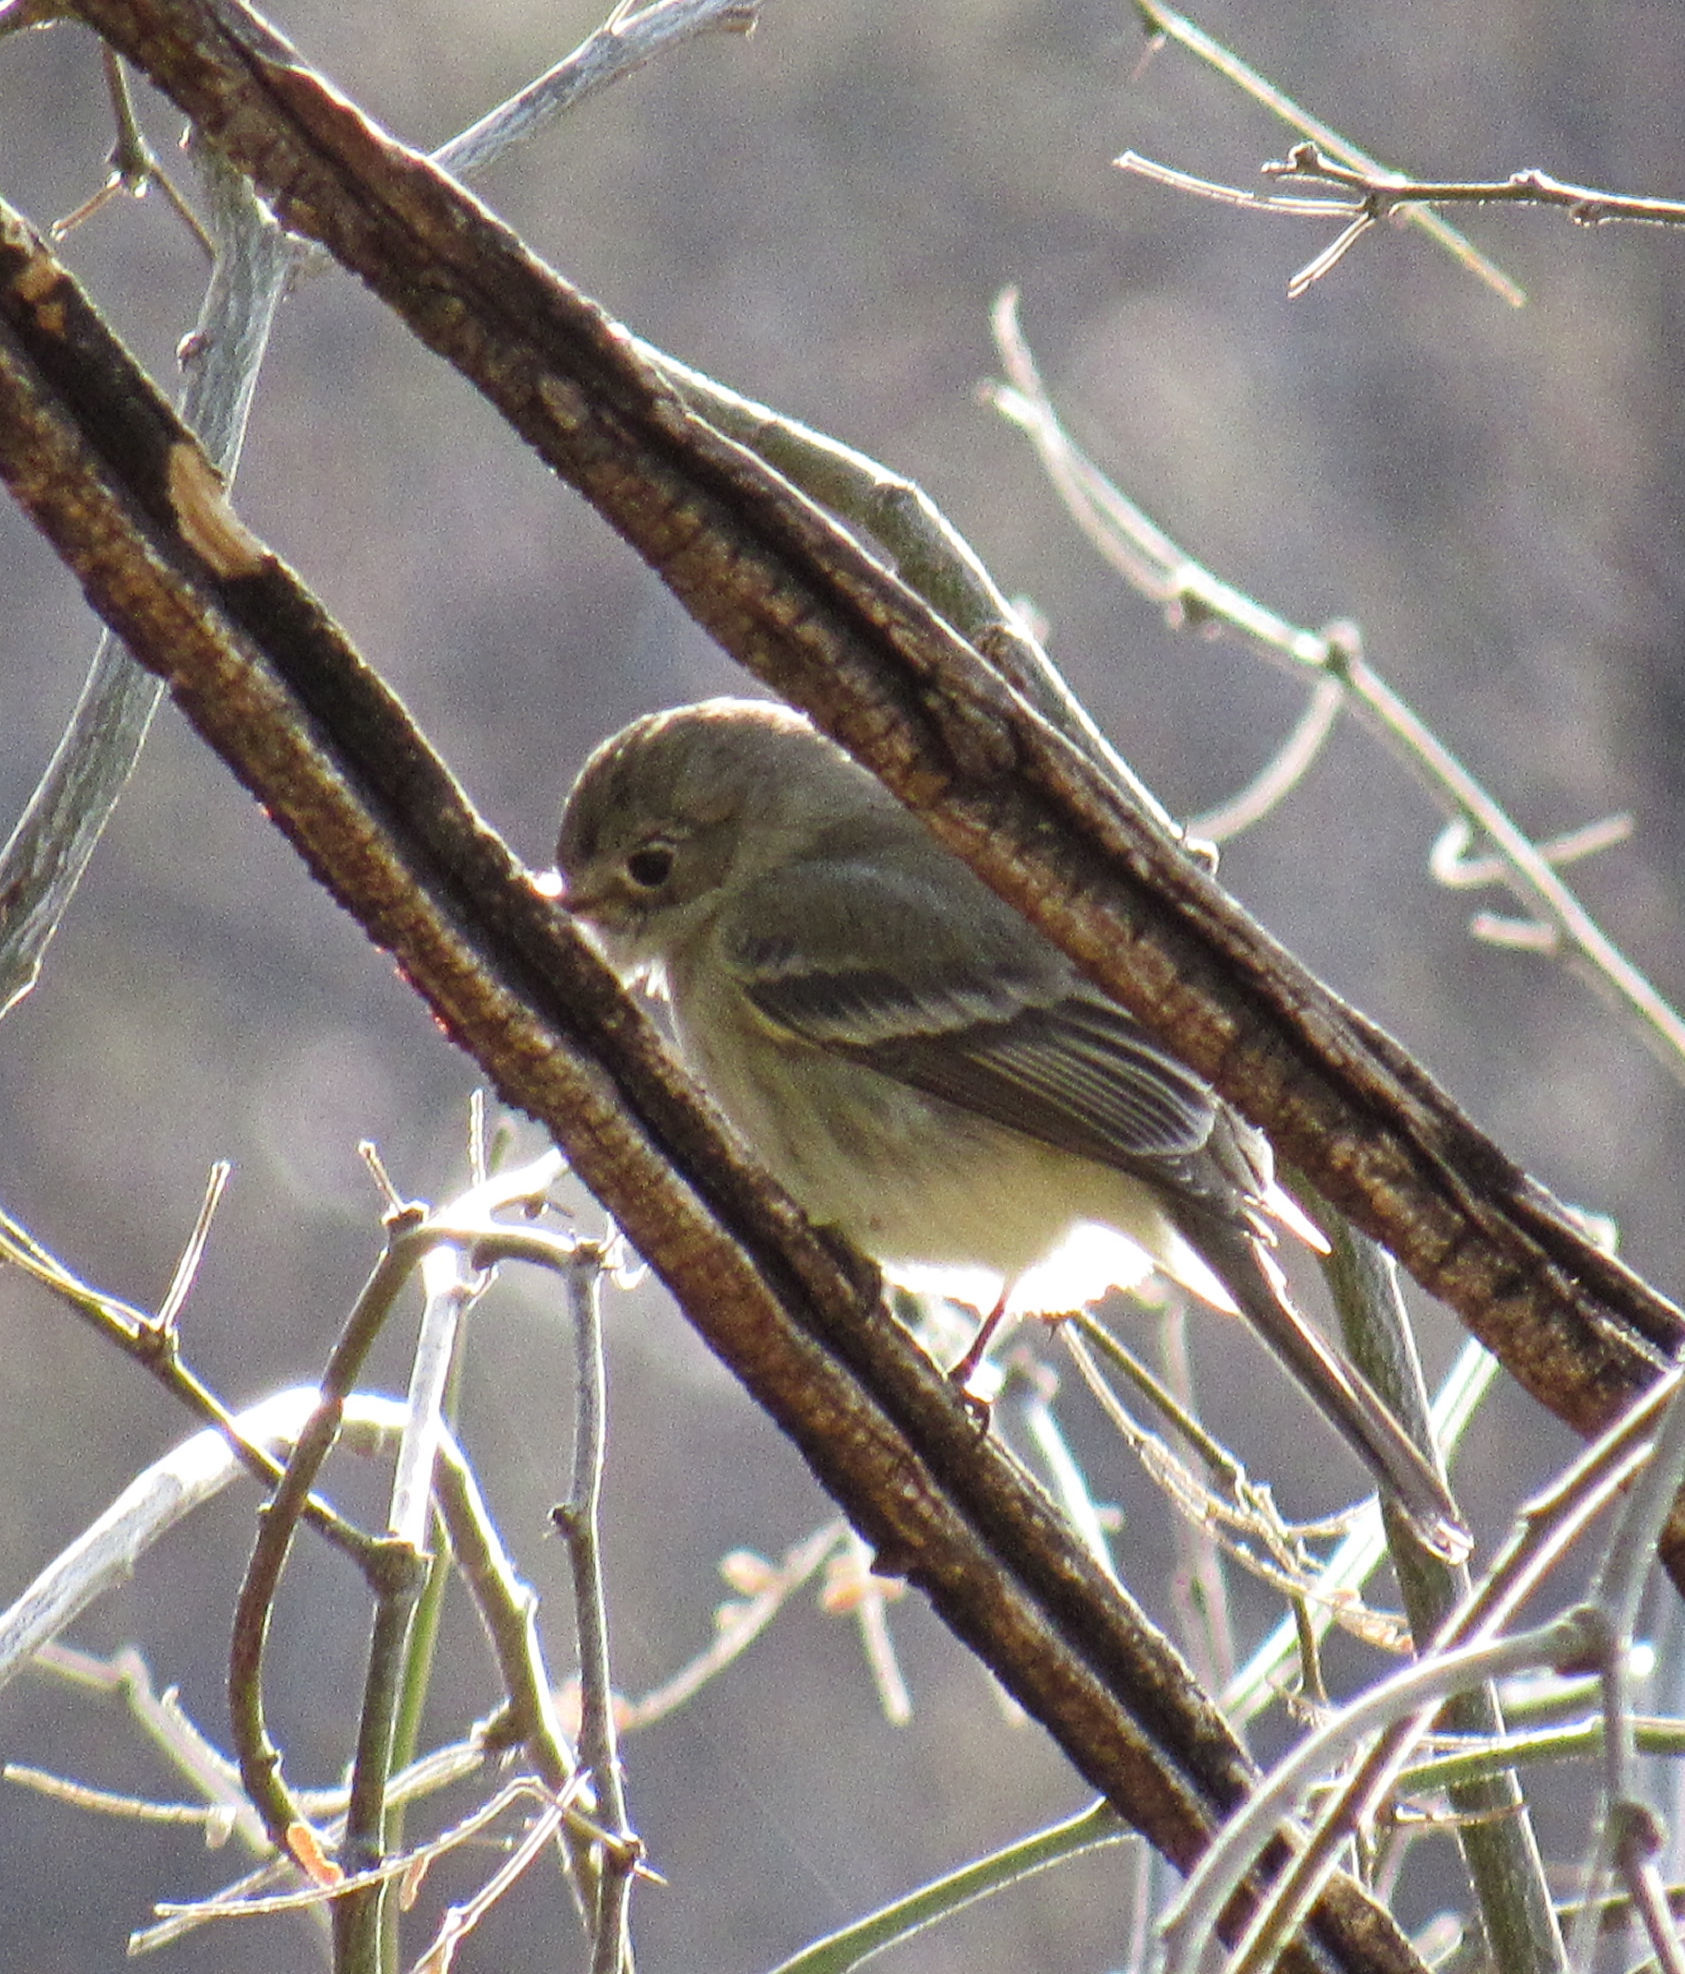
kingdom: Animalia
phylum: Chordata
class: Aves
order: Passeriformes
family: Tyrannidae
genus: Empidonax
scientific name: Empidonax wrightii
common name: Gray flycatcher
